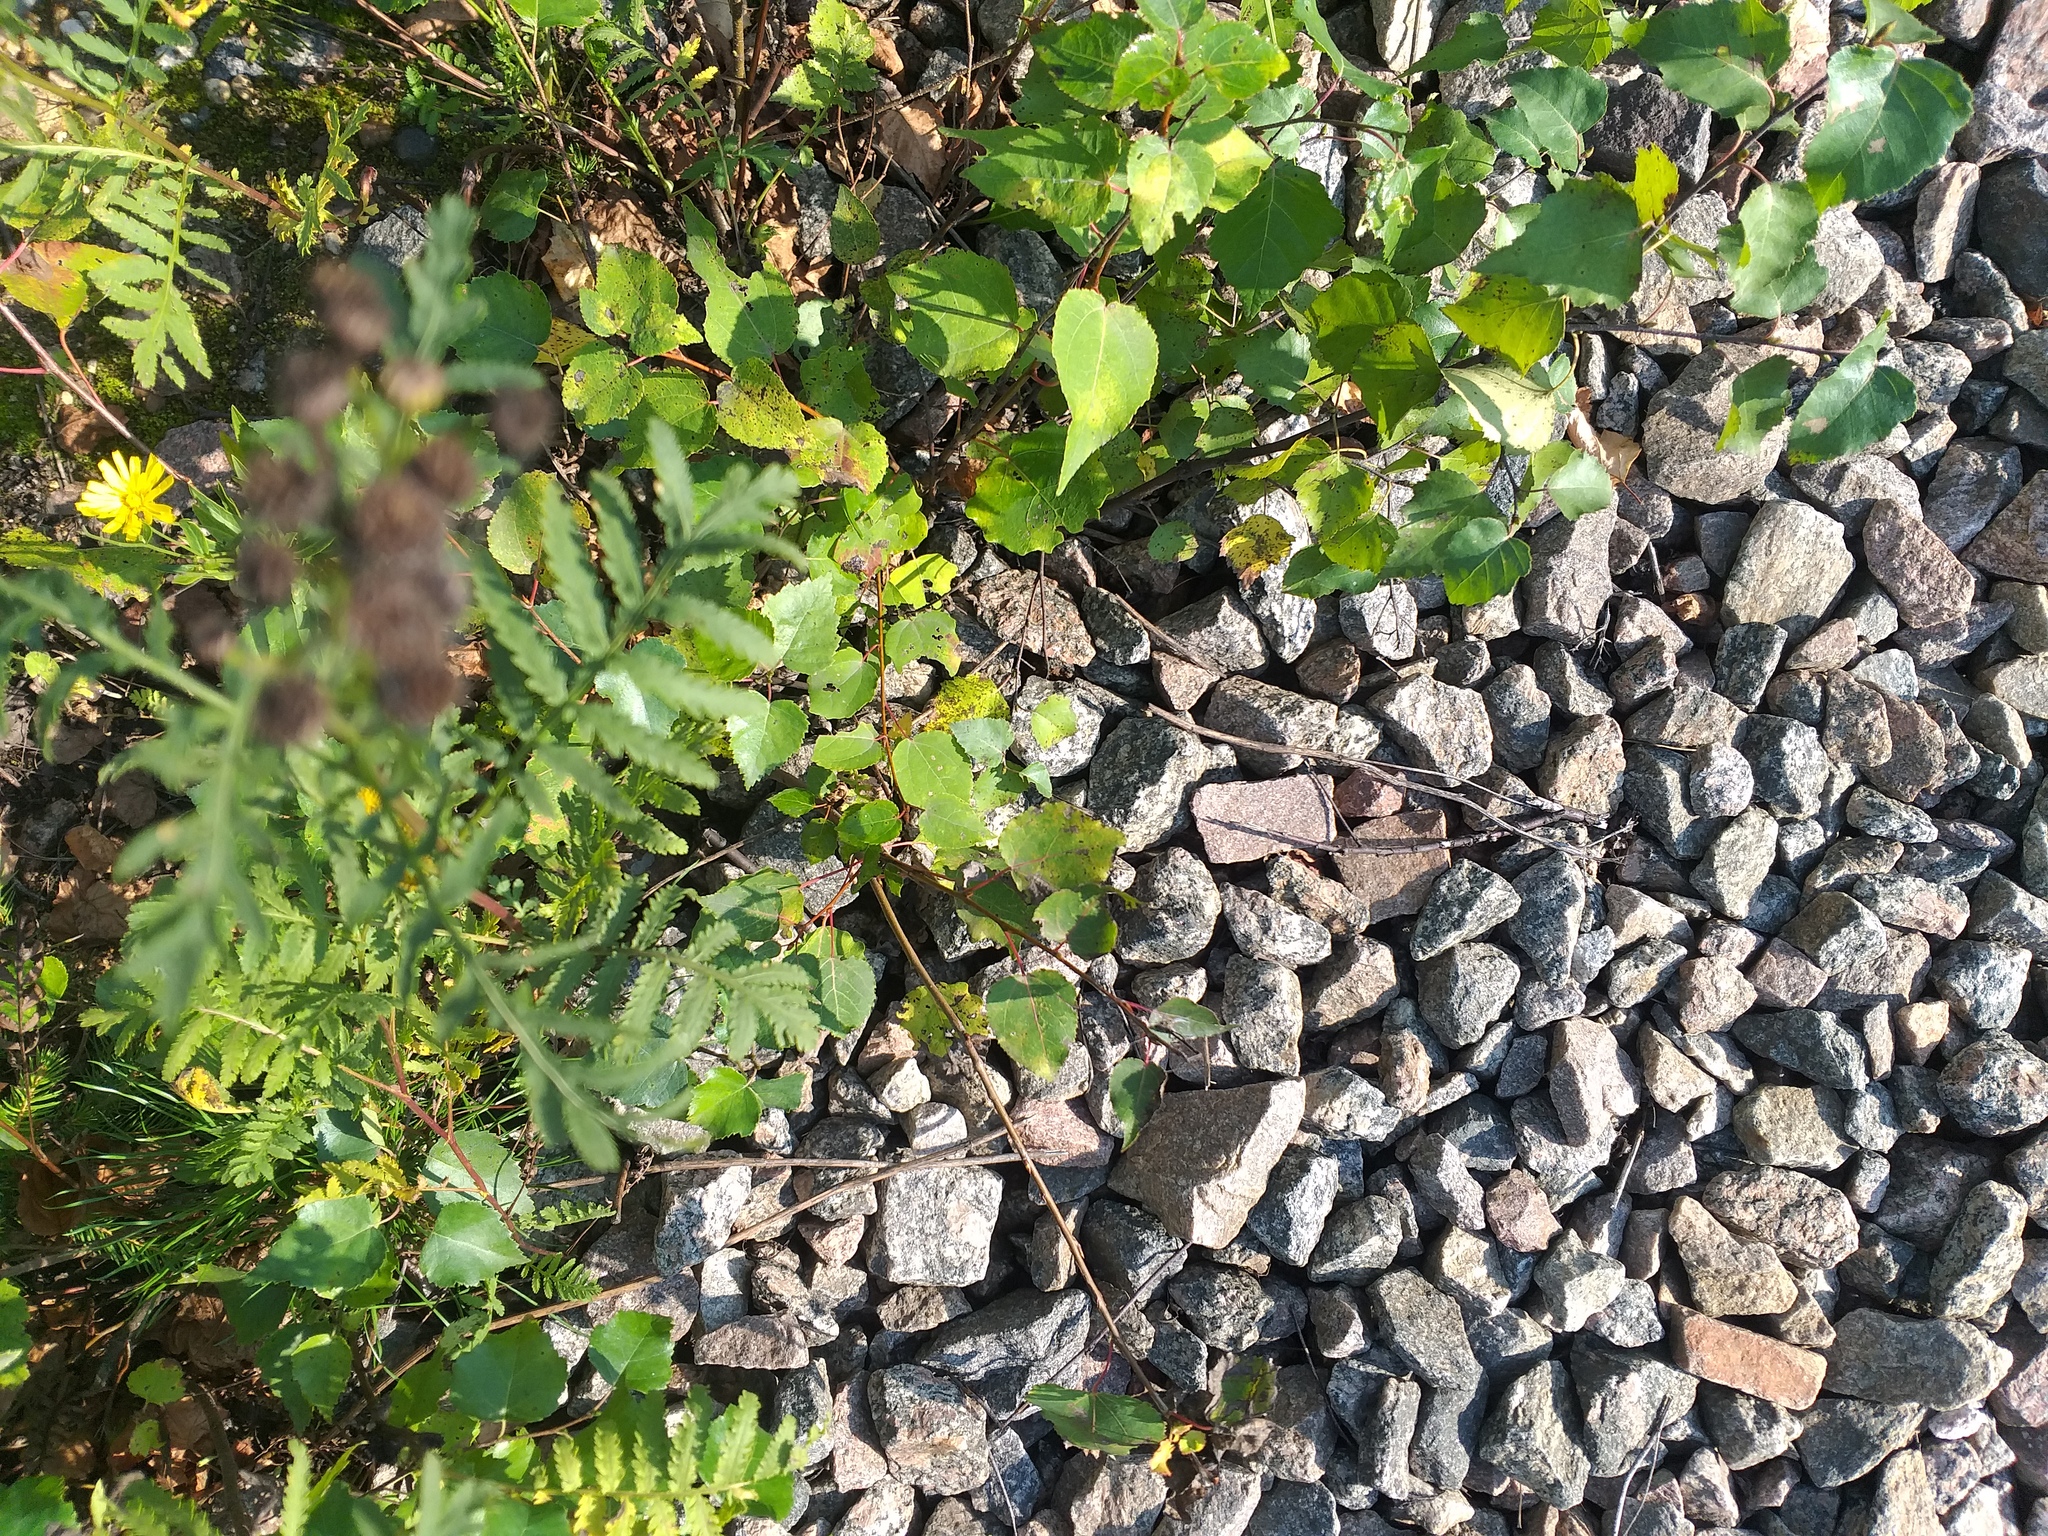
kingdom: Plantae
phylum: Tracheophyta
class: Magnoliopsida
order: Malpighiales
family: Salicaceae
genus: Populus
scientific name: Populus tremula
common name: European aspen
